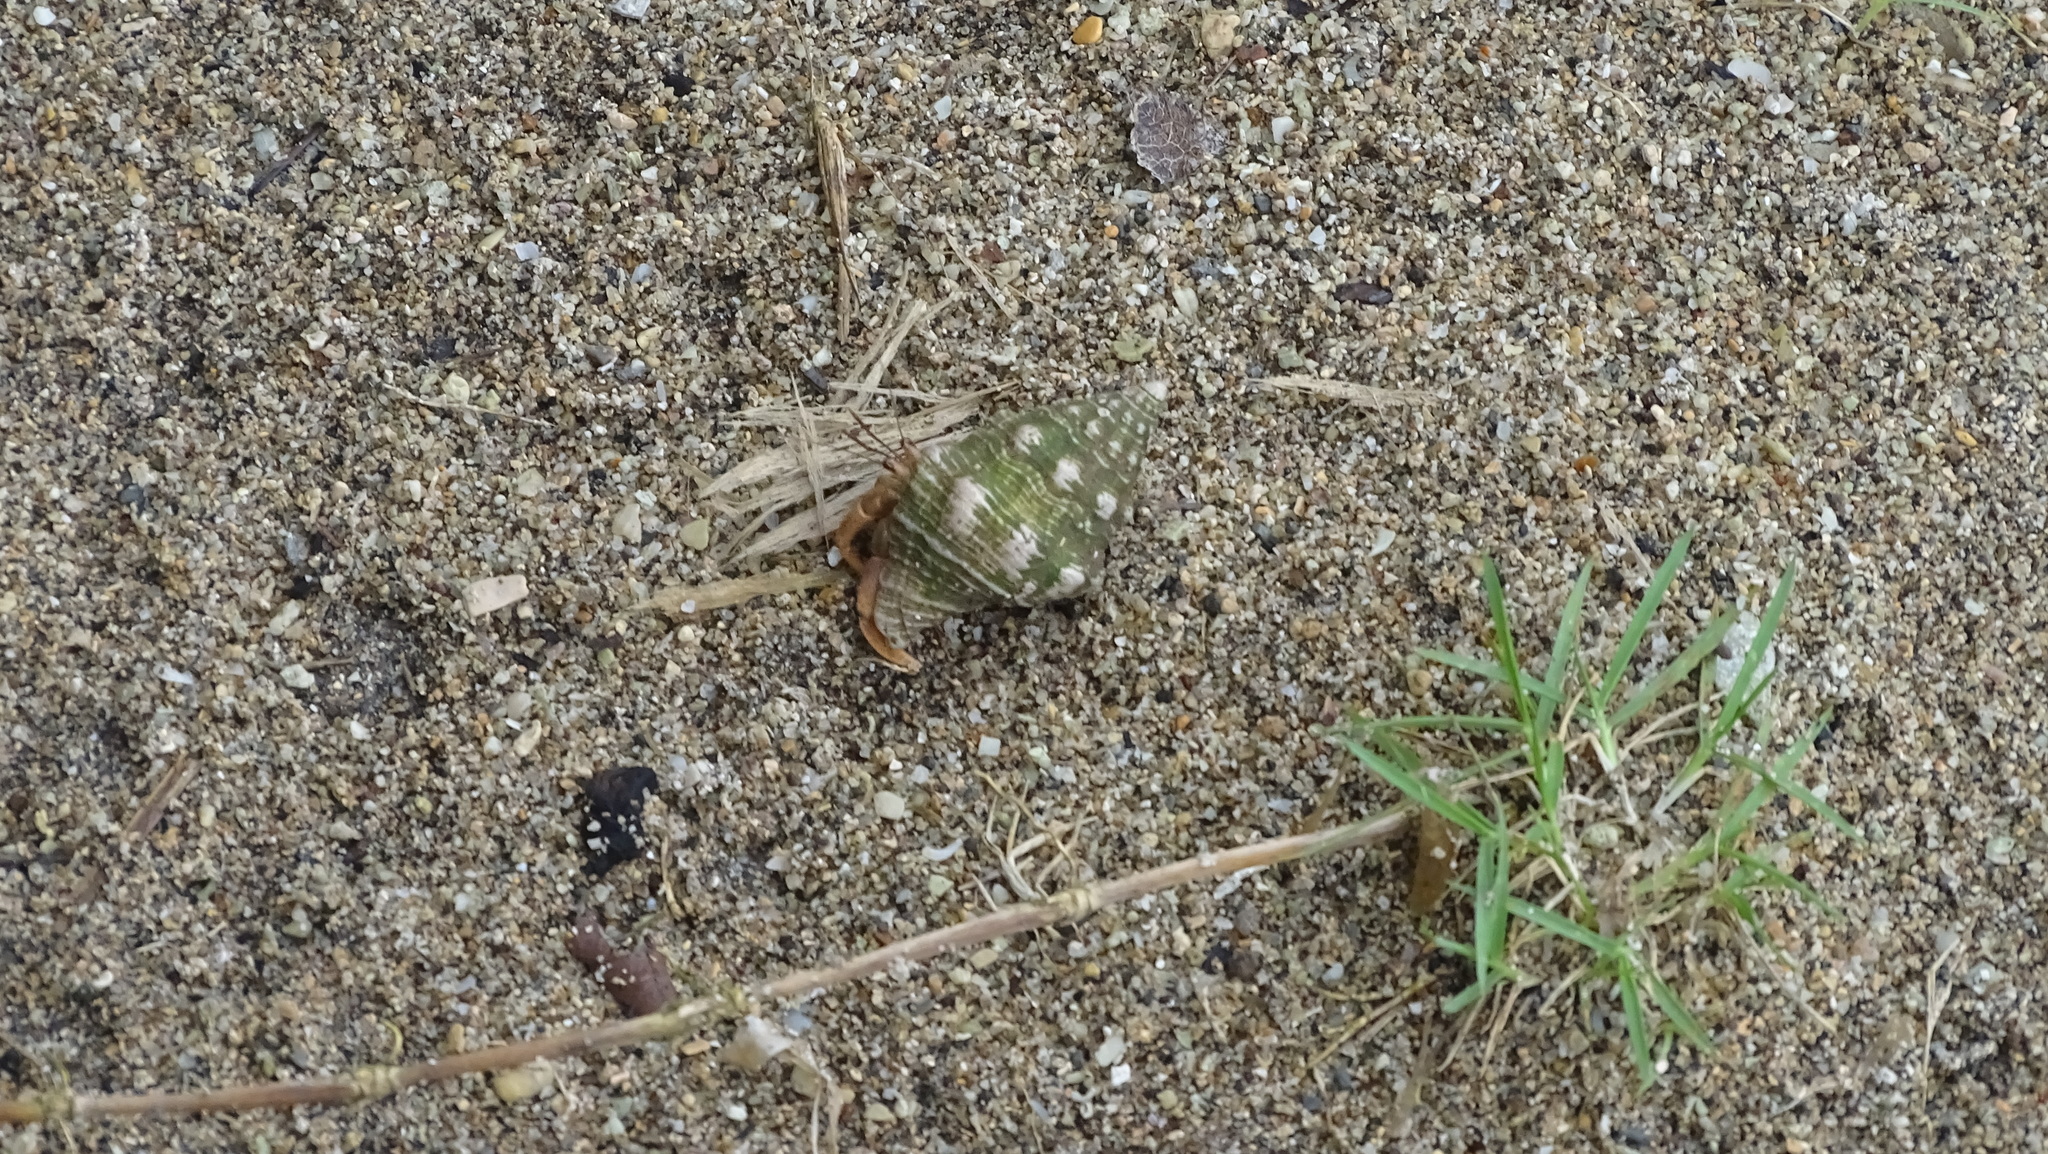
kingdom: Animalia
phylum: Arthropoda
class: Malacostraca
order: Decapoda
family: Coenobitidae
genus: Coenobita
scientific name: Coenobita clypeatus
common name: Caribbean hermit crab
